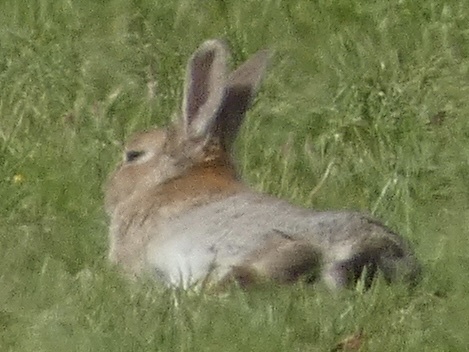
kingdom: Animalia
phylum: Chordata
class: Mammalia
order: Lagomorpha
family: Leporidae
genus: Oryctolagus
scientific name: Oryctolagus cuniculus
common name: European rabbit
